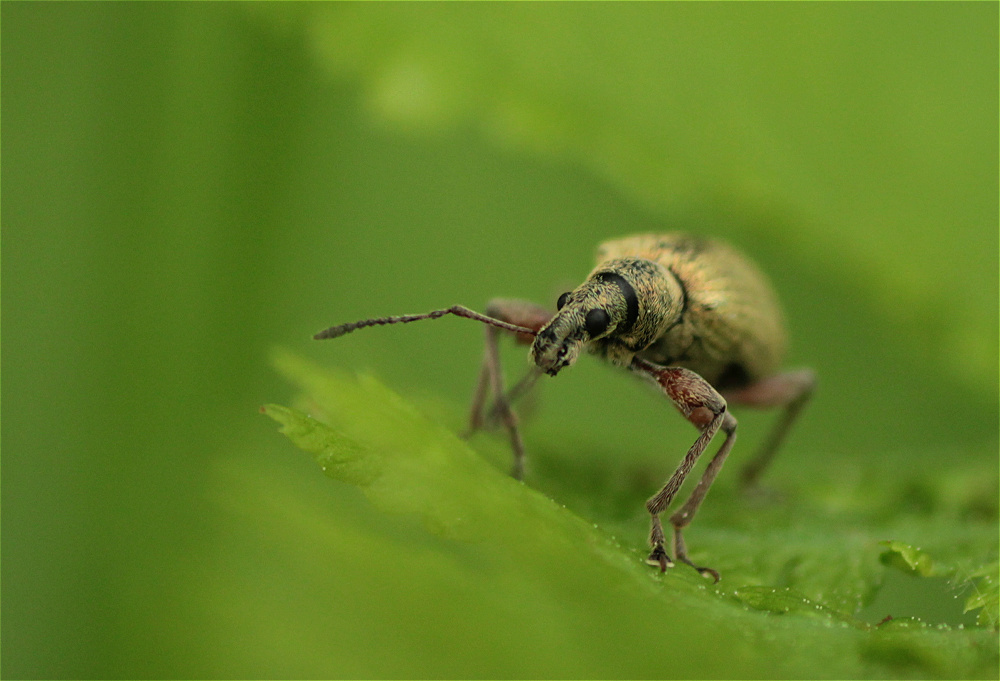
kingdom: Animalia
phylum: Arthropoda
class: Insecta
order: Coleoptera
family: Curculionidae
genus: Phyllobius
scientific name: Phyllobius glaucus
